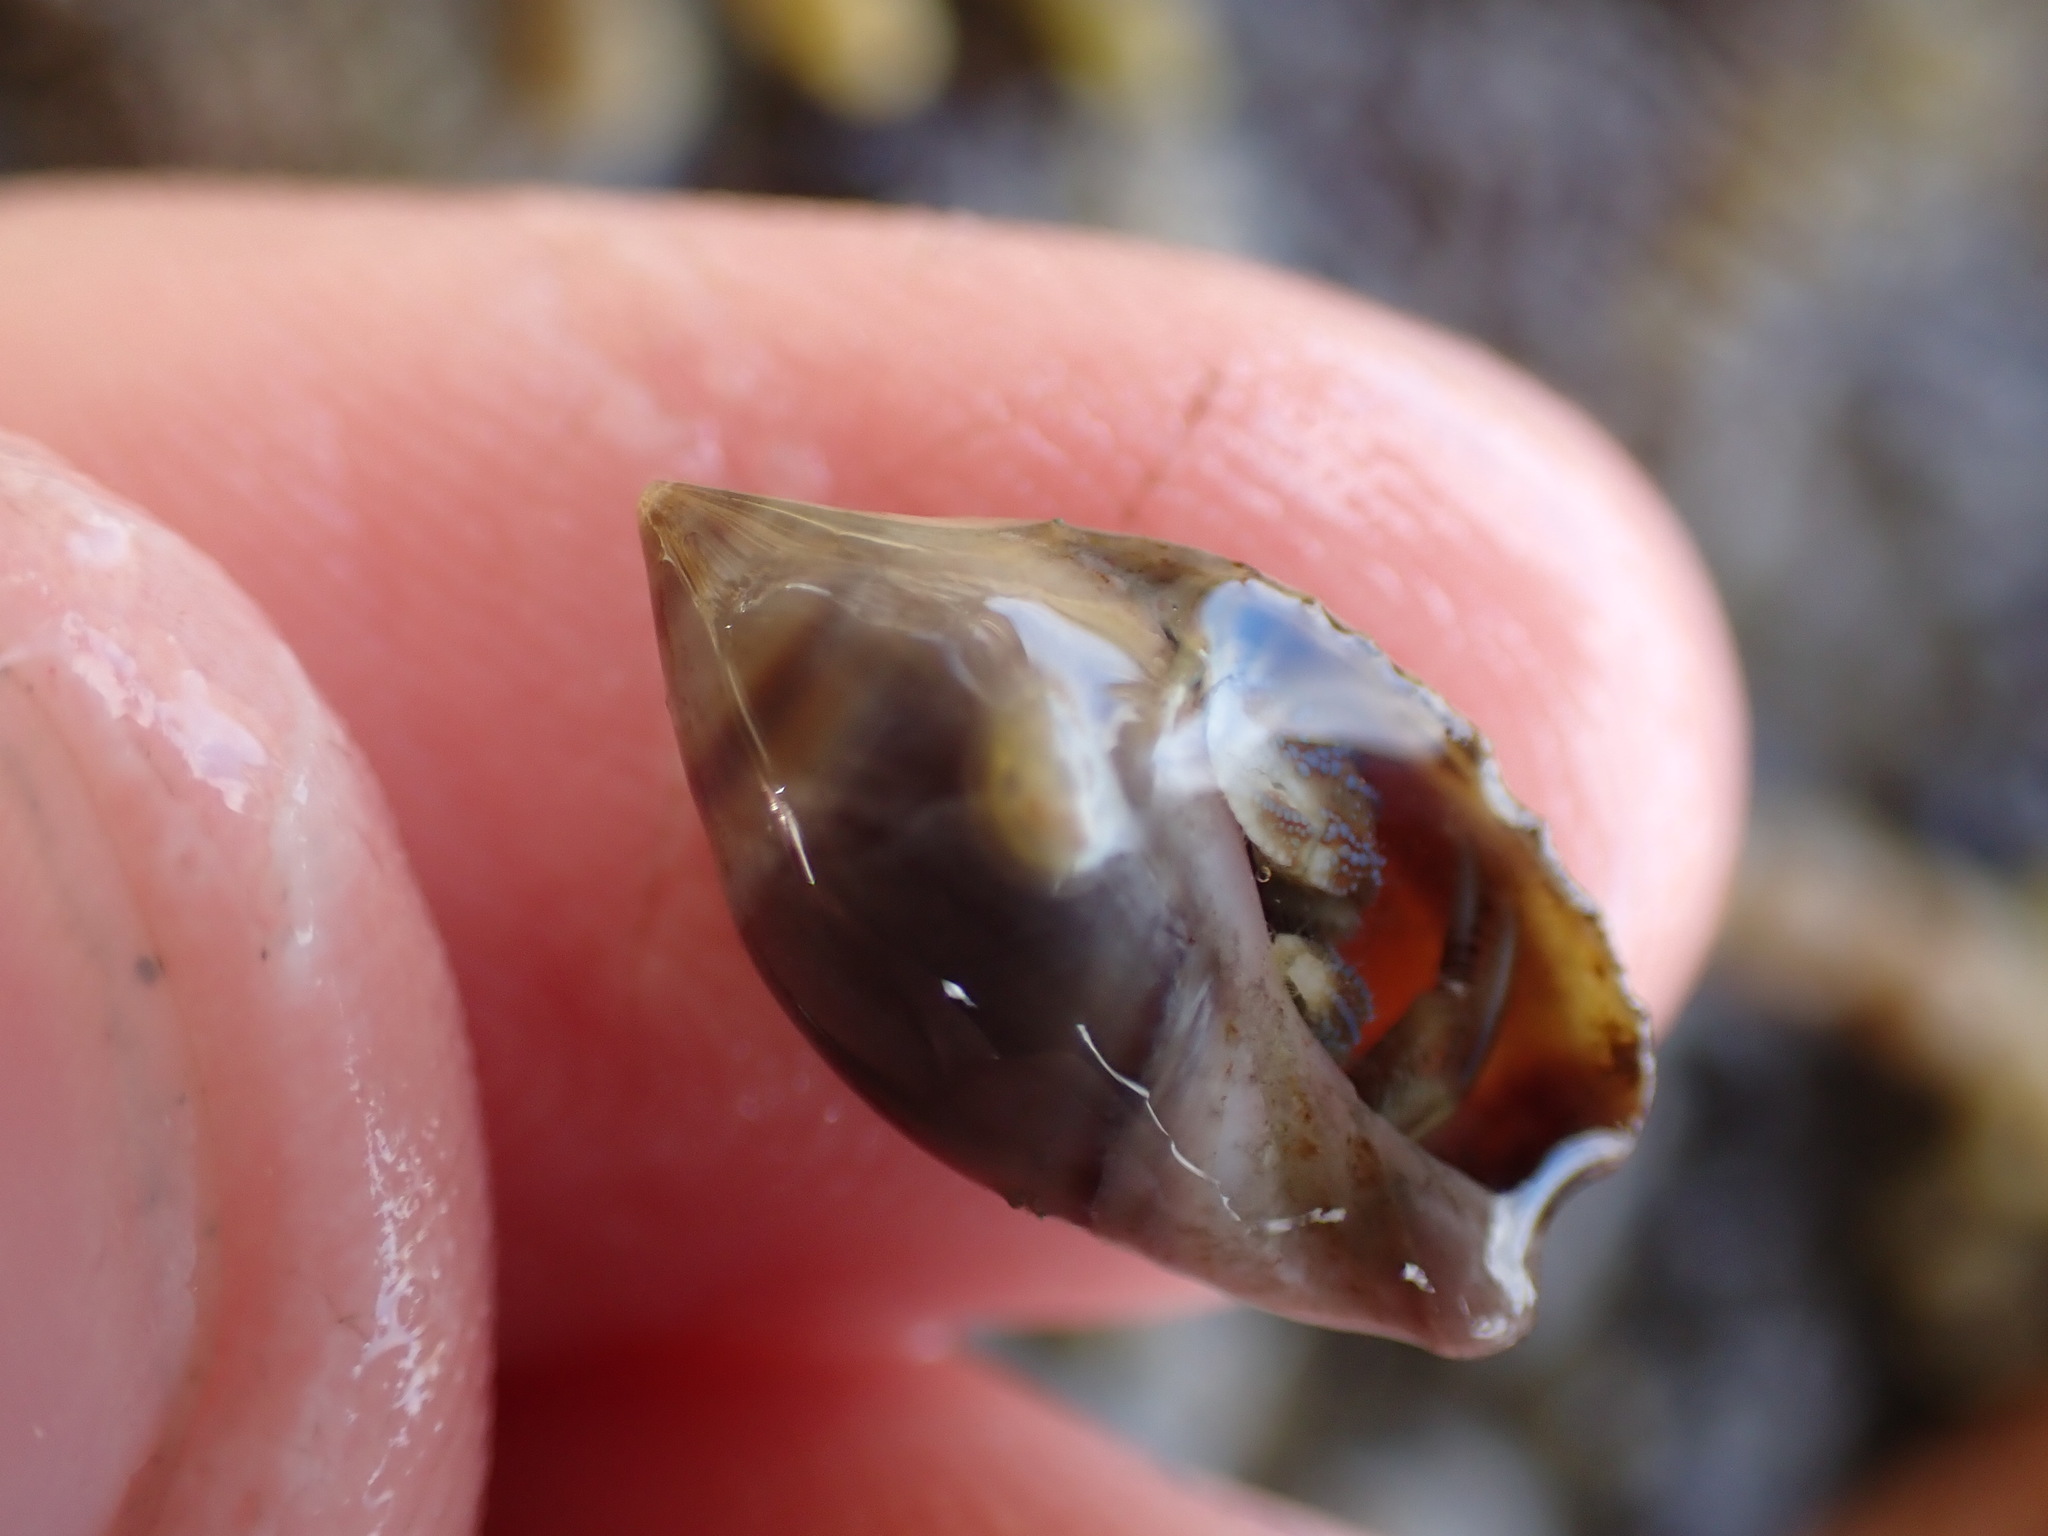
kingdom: Animalia
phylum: Mollusca
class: Gastropoda
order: Neogastropoda
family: Ancillariidae
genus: Amalda
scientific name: Amalda depressa
